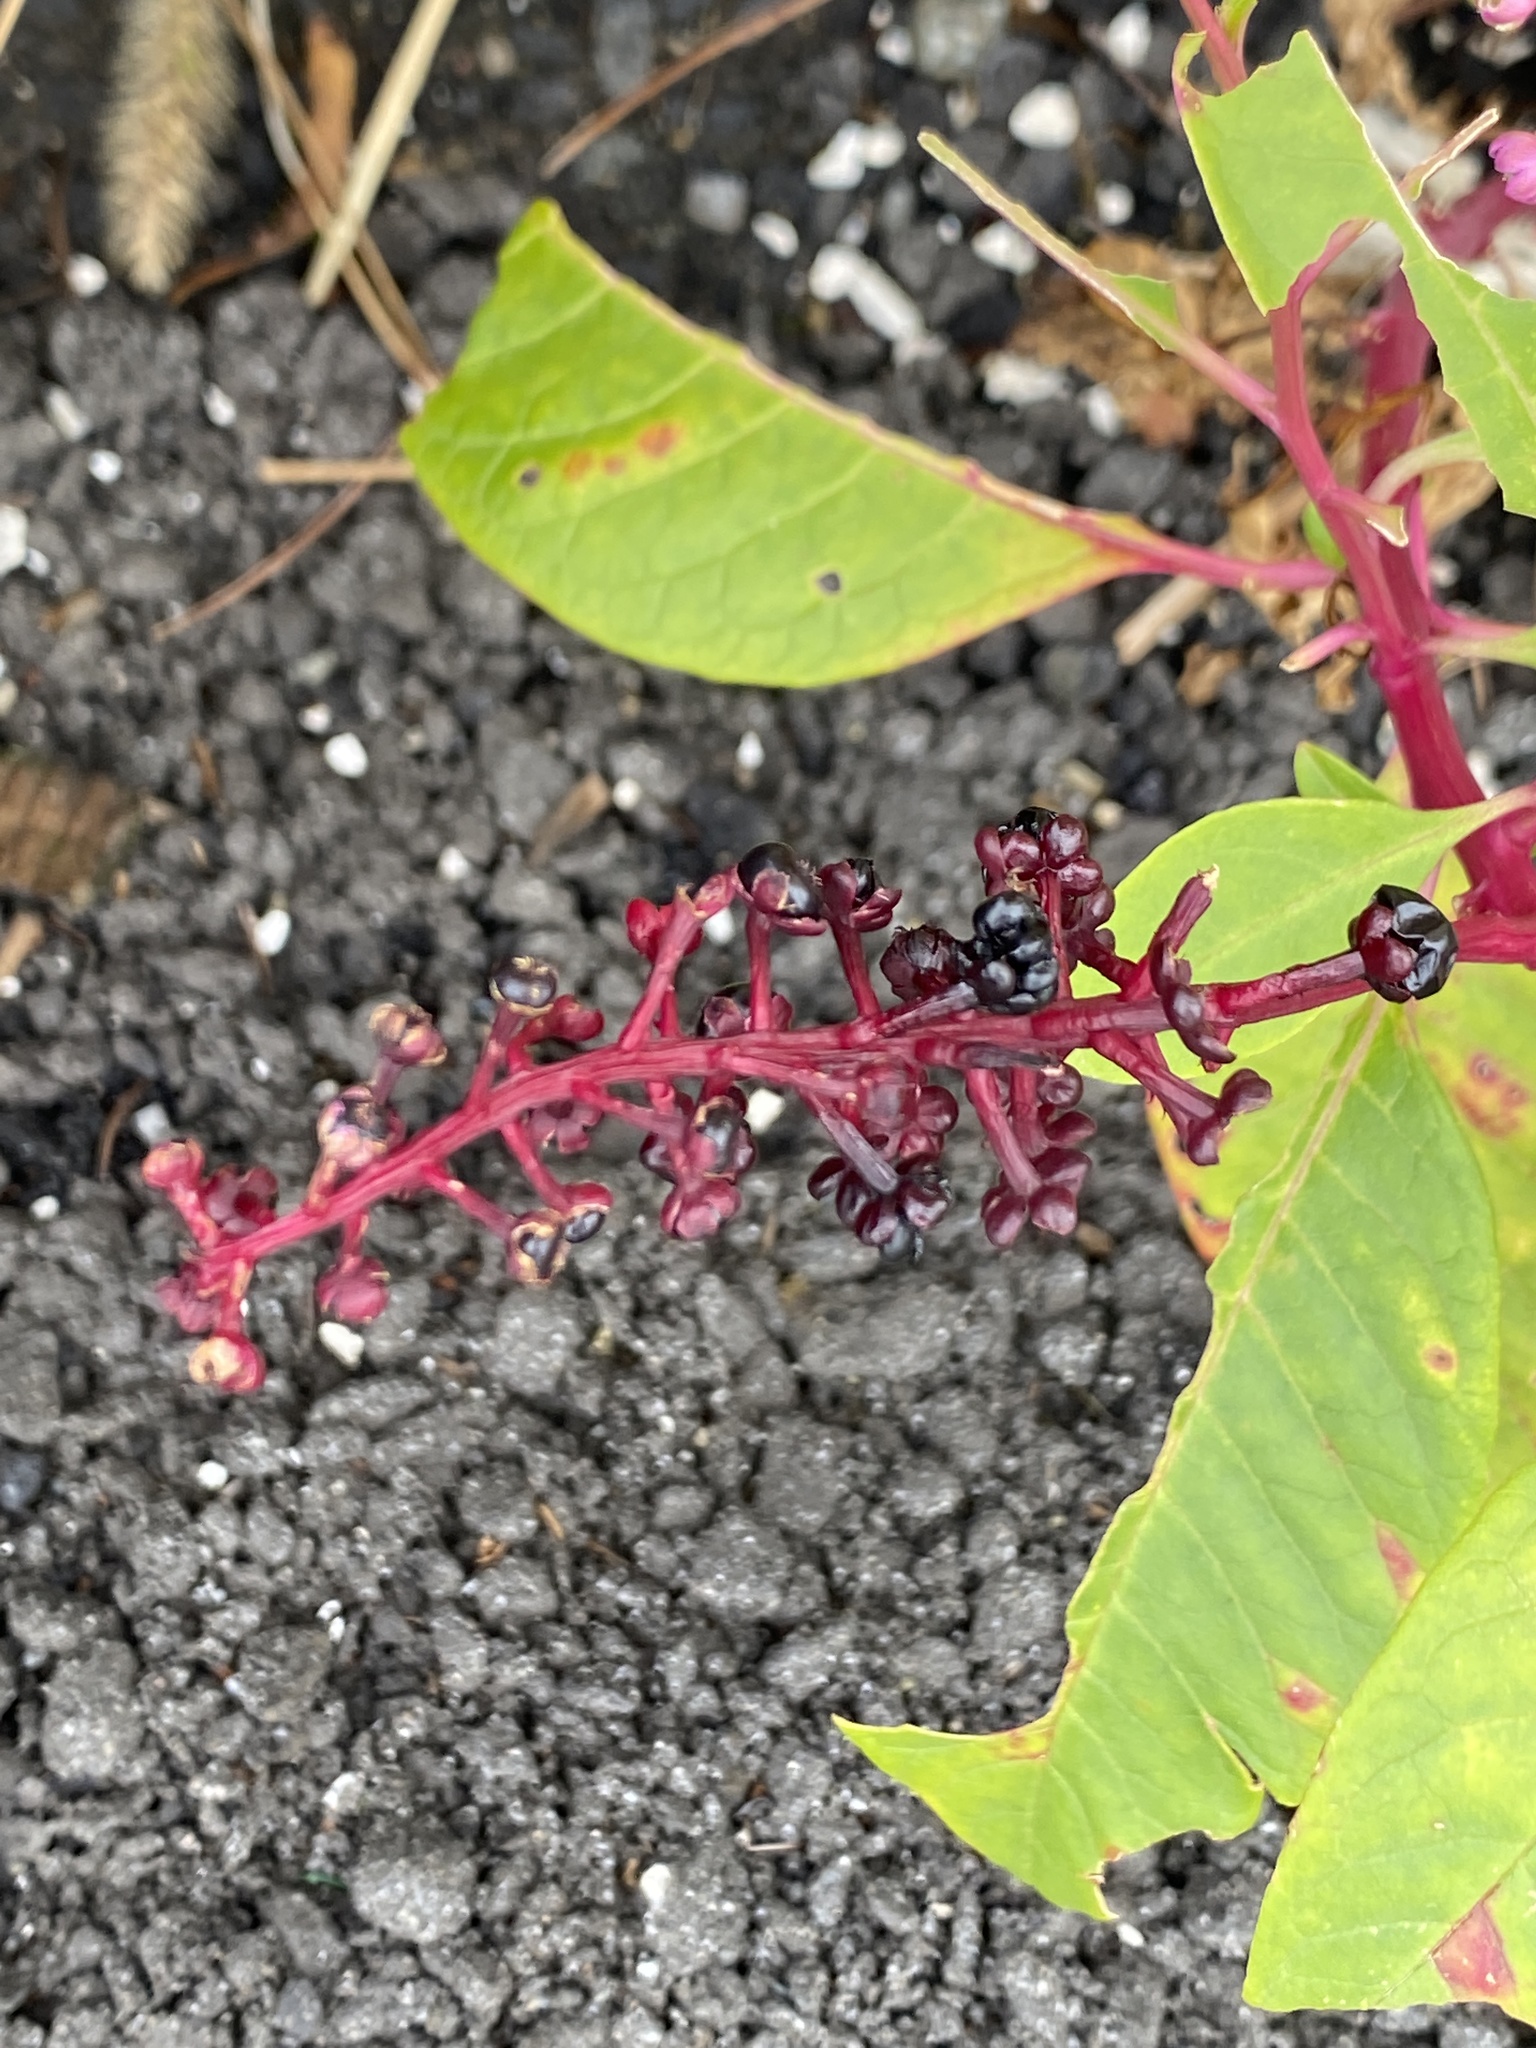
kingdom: Plantae
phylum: Tracheophyta
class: Magnoliopsida
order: Caryophyllales
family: Phytolaccaceae
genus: Phytolacca
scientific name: Phytolacca americana
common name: American pokeweed
